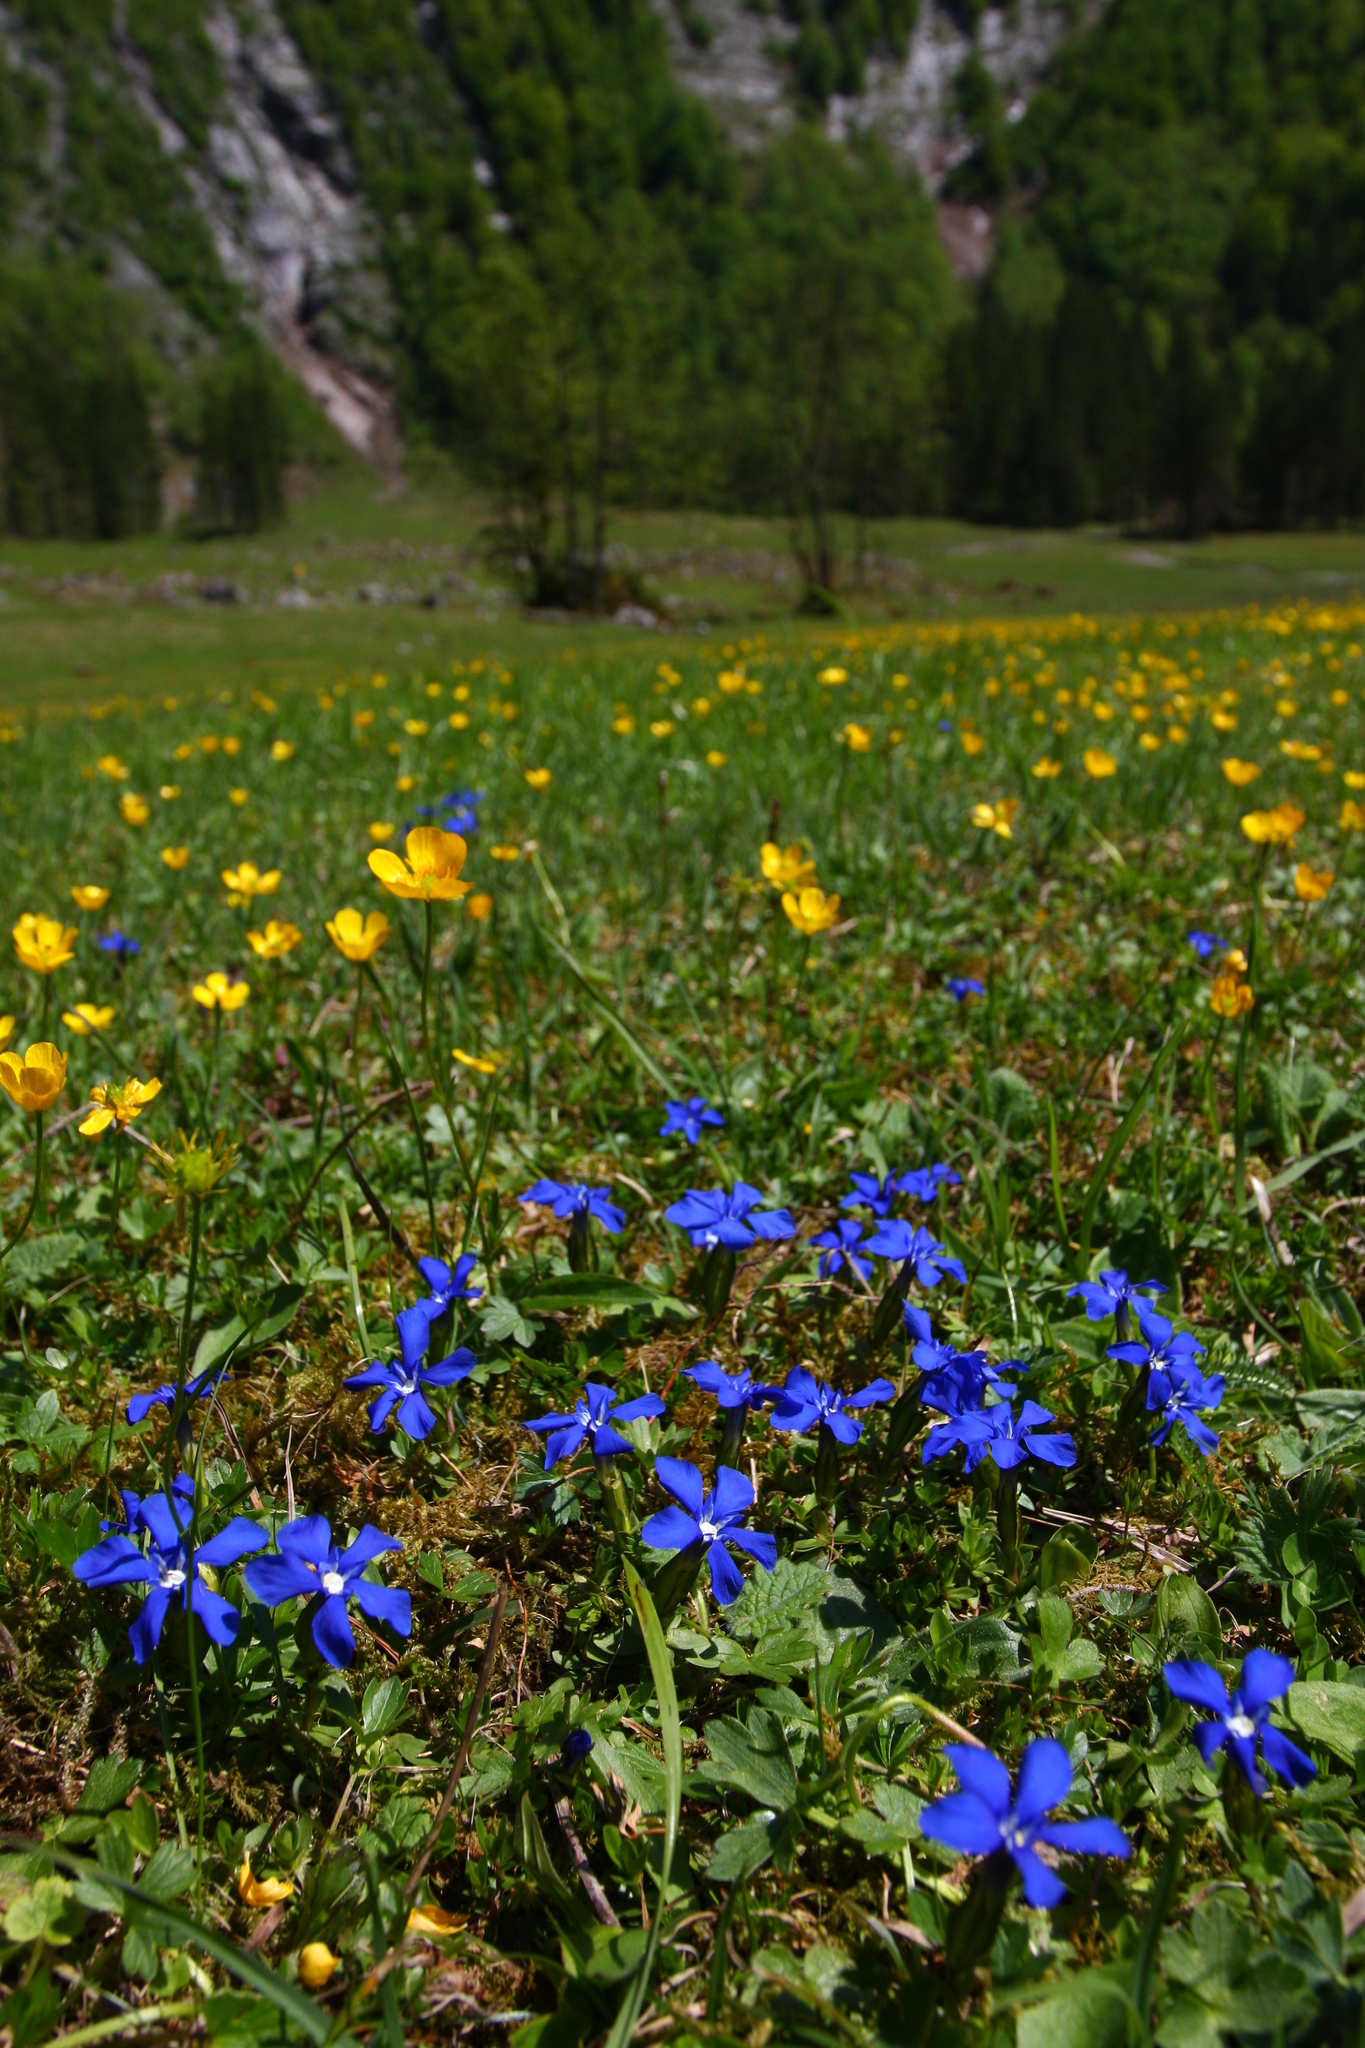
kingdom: Plantae
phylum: Tracheophyta
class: Magnoliopsida
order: Gentianales
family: Gentianaceae
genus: Gentiana
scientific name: Gentiana verna
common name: Spring gentian
